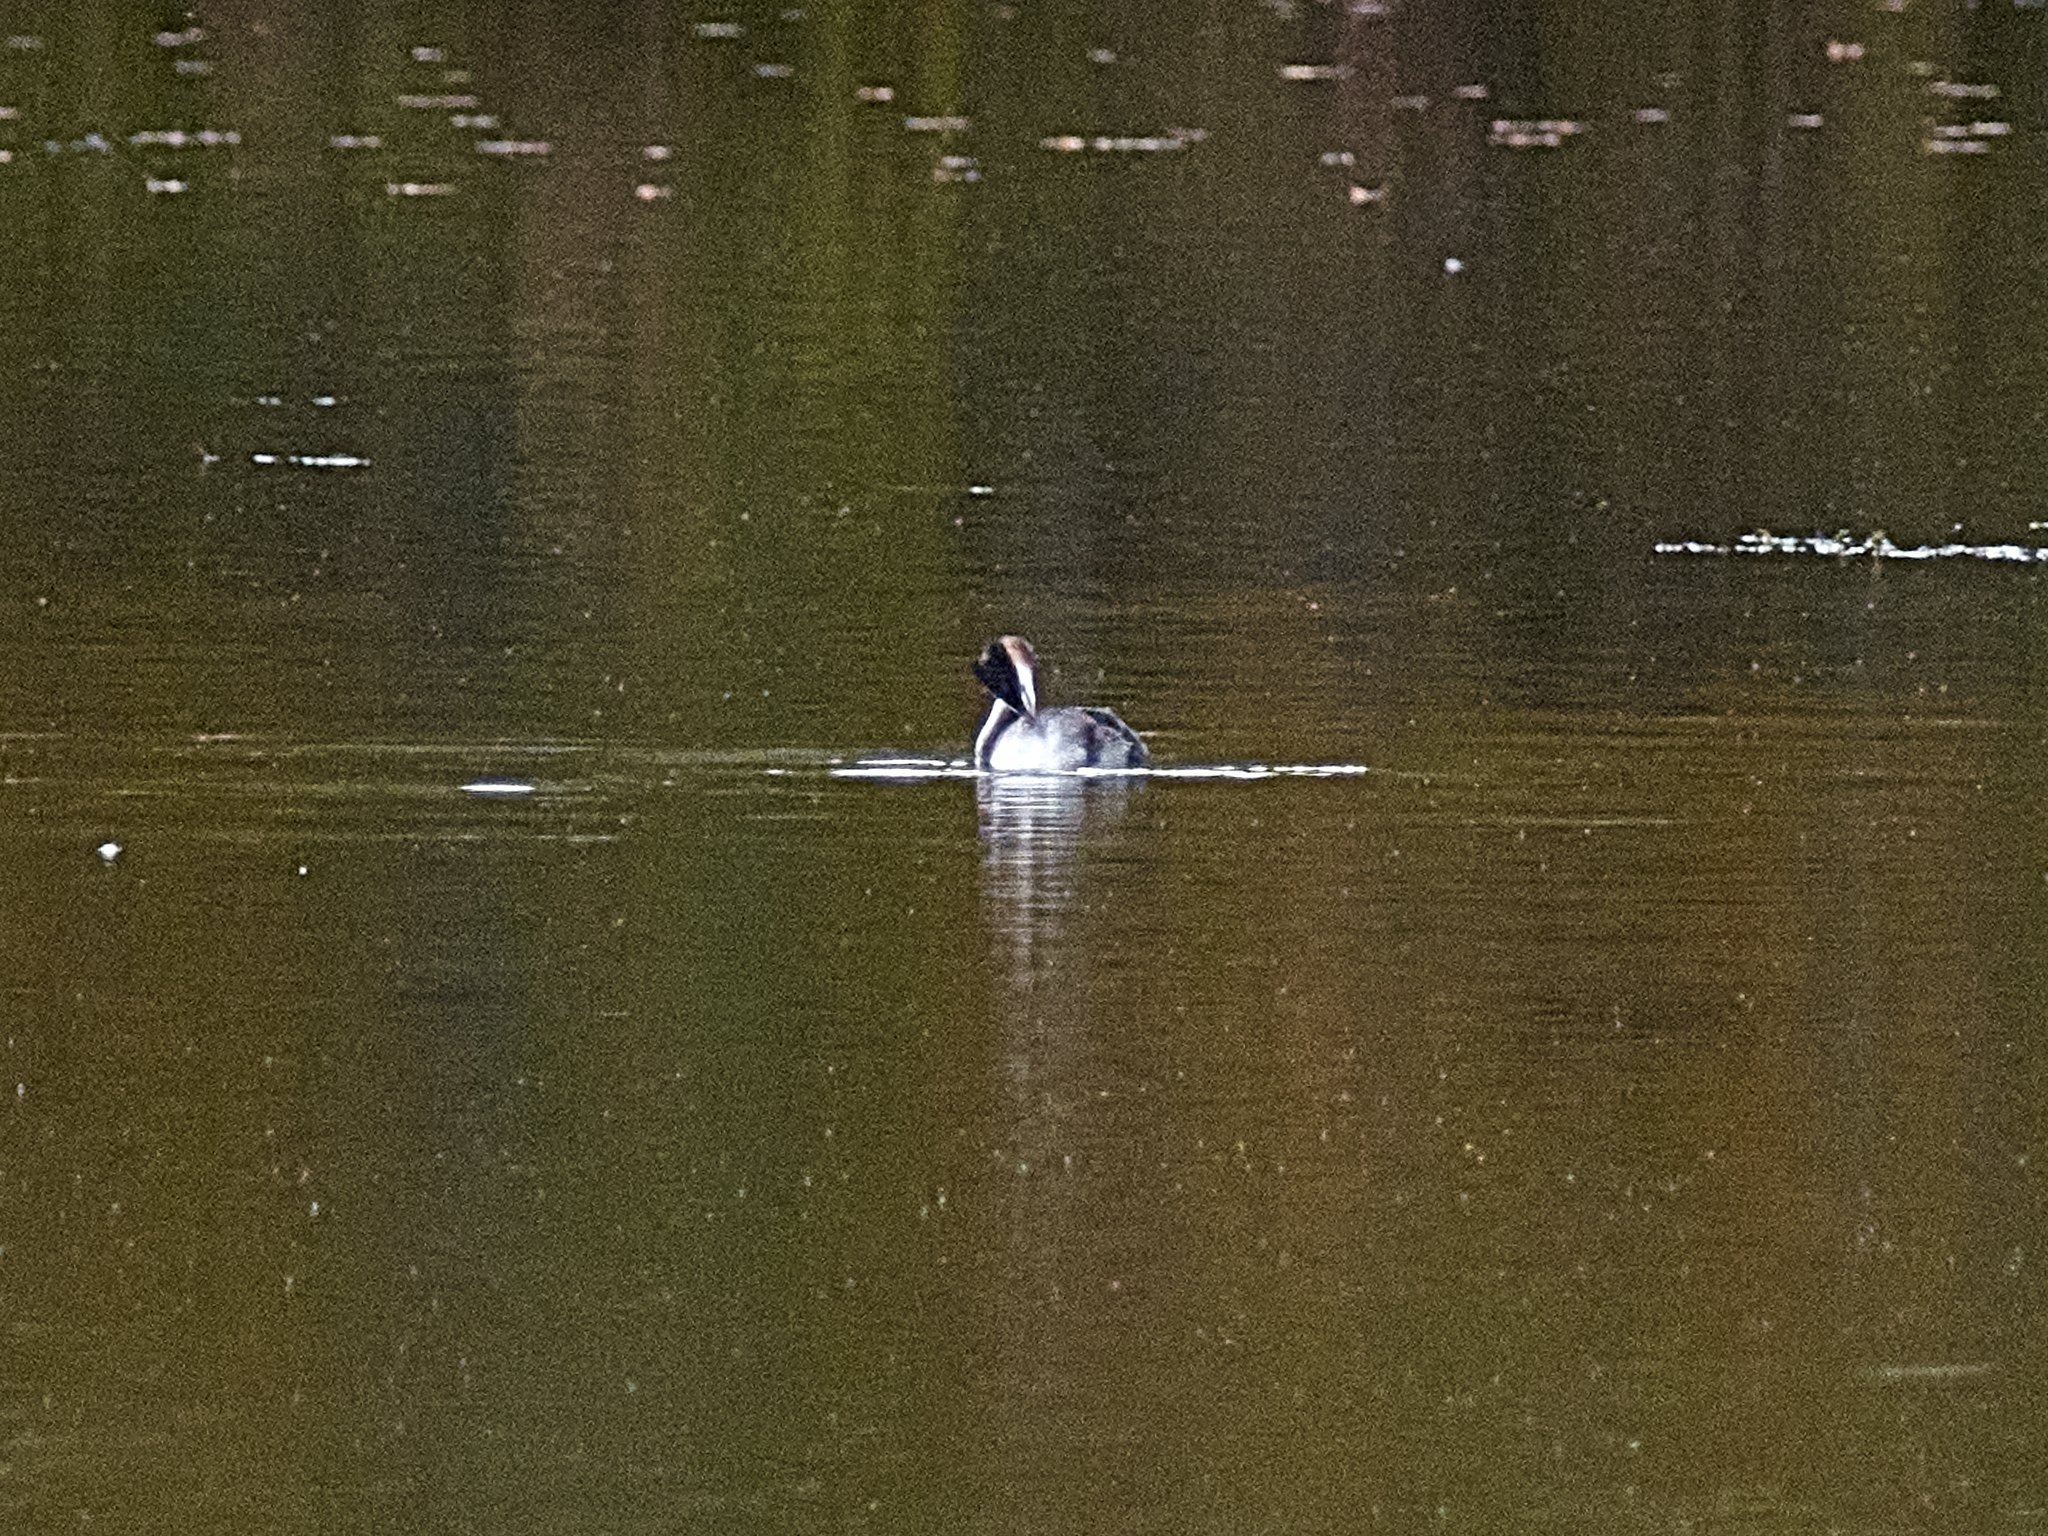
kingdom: Animalia
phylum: Chordata
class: Aves
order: Podicipediformes
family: Podicipedidae
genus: Podiceps
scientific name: Podiceps cristatus
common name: Great crested grebe
